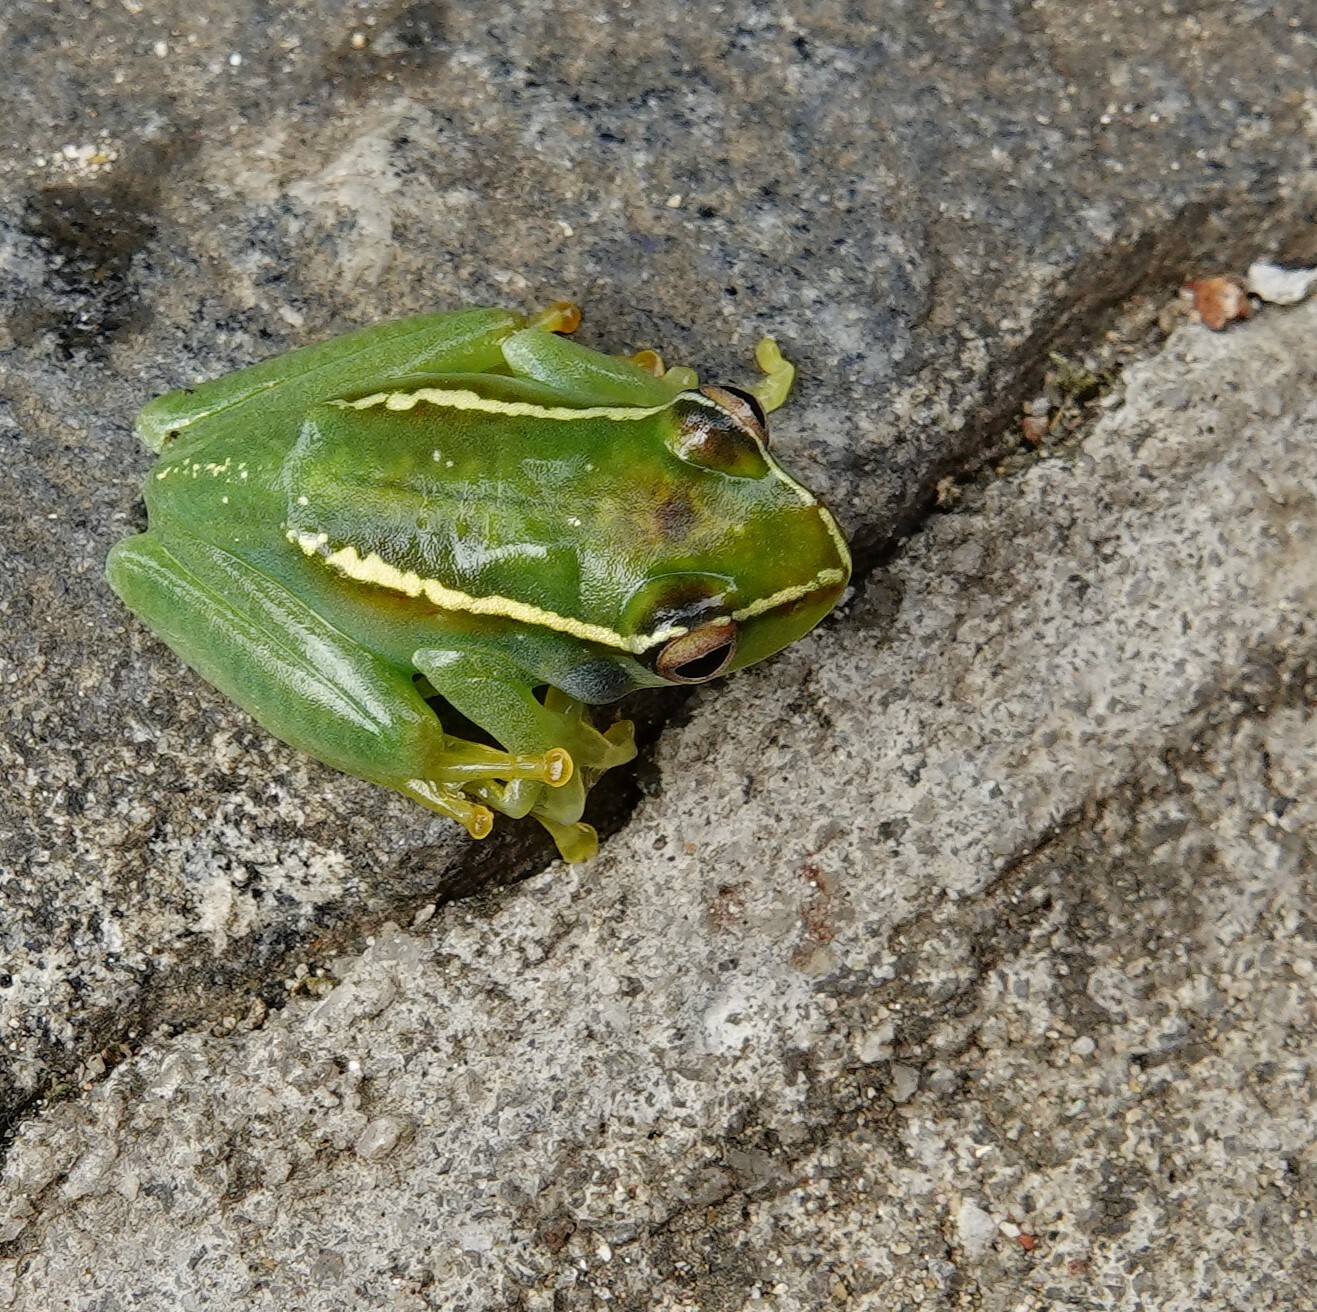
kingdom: Animalia
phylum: Chordata
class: Amphibia
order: Anura
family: Mantellidae
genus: Boophis
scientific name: Boophis andohahela
